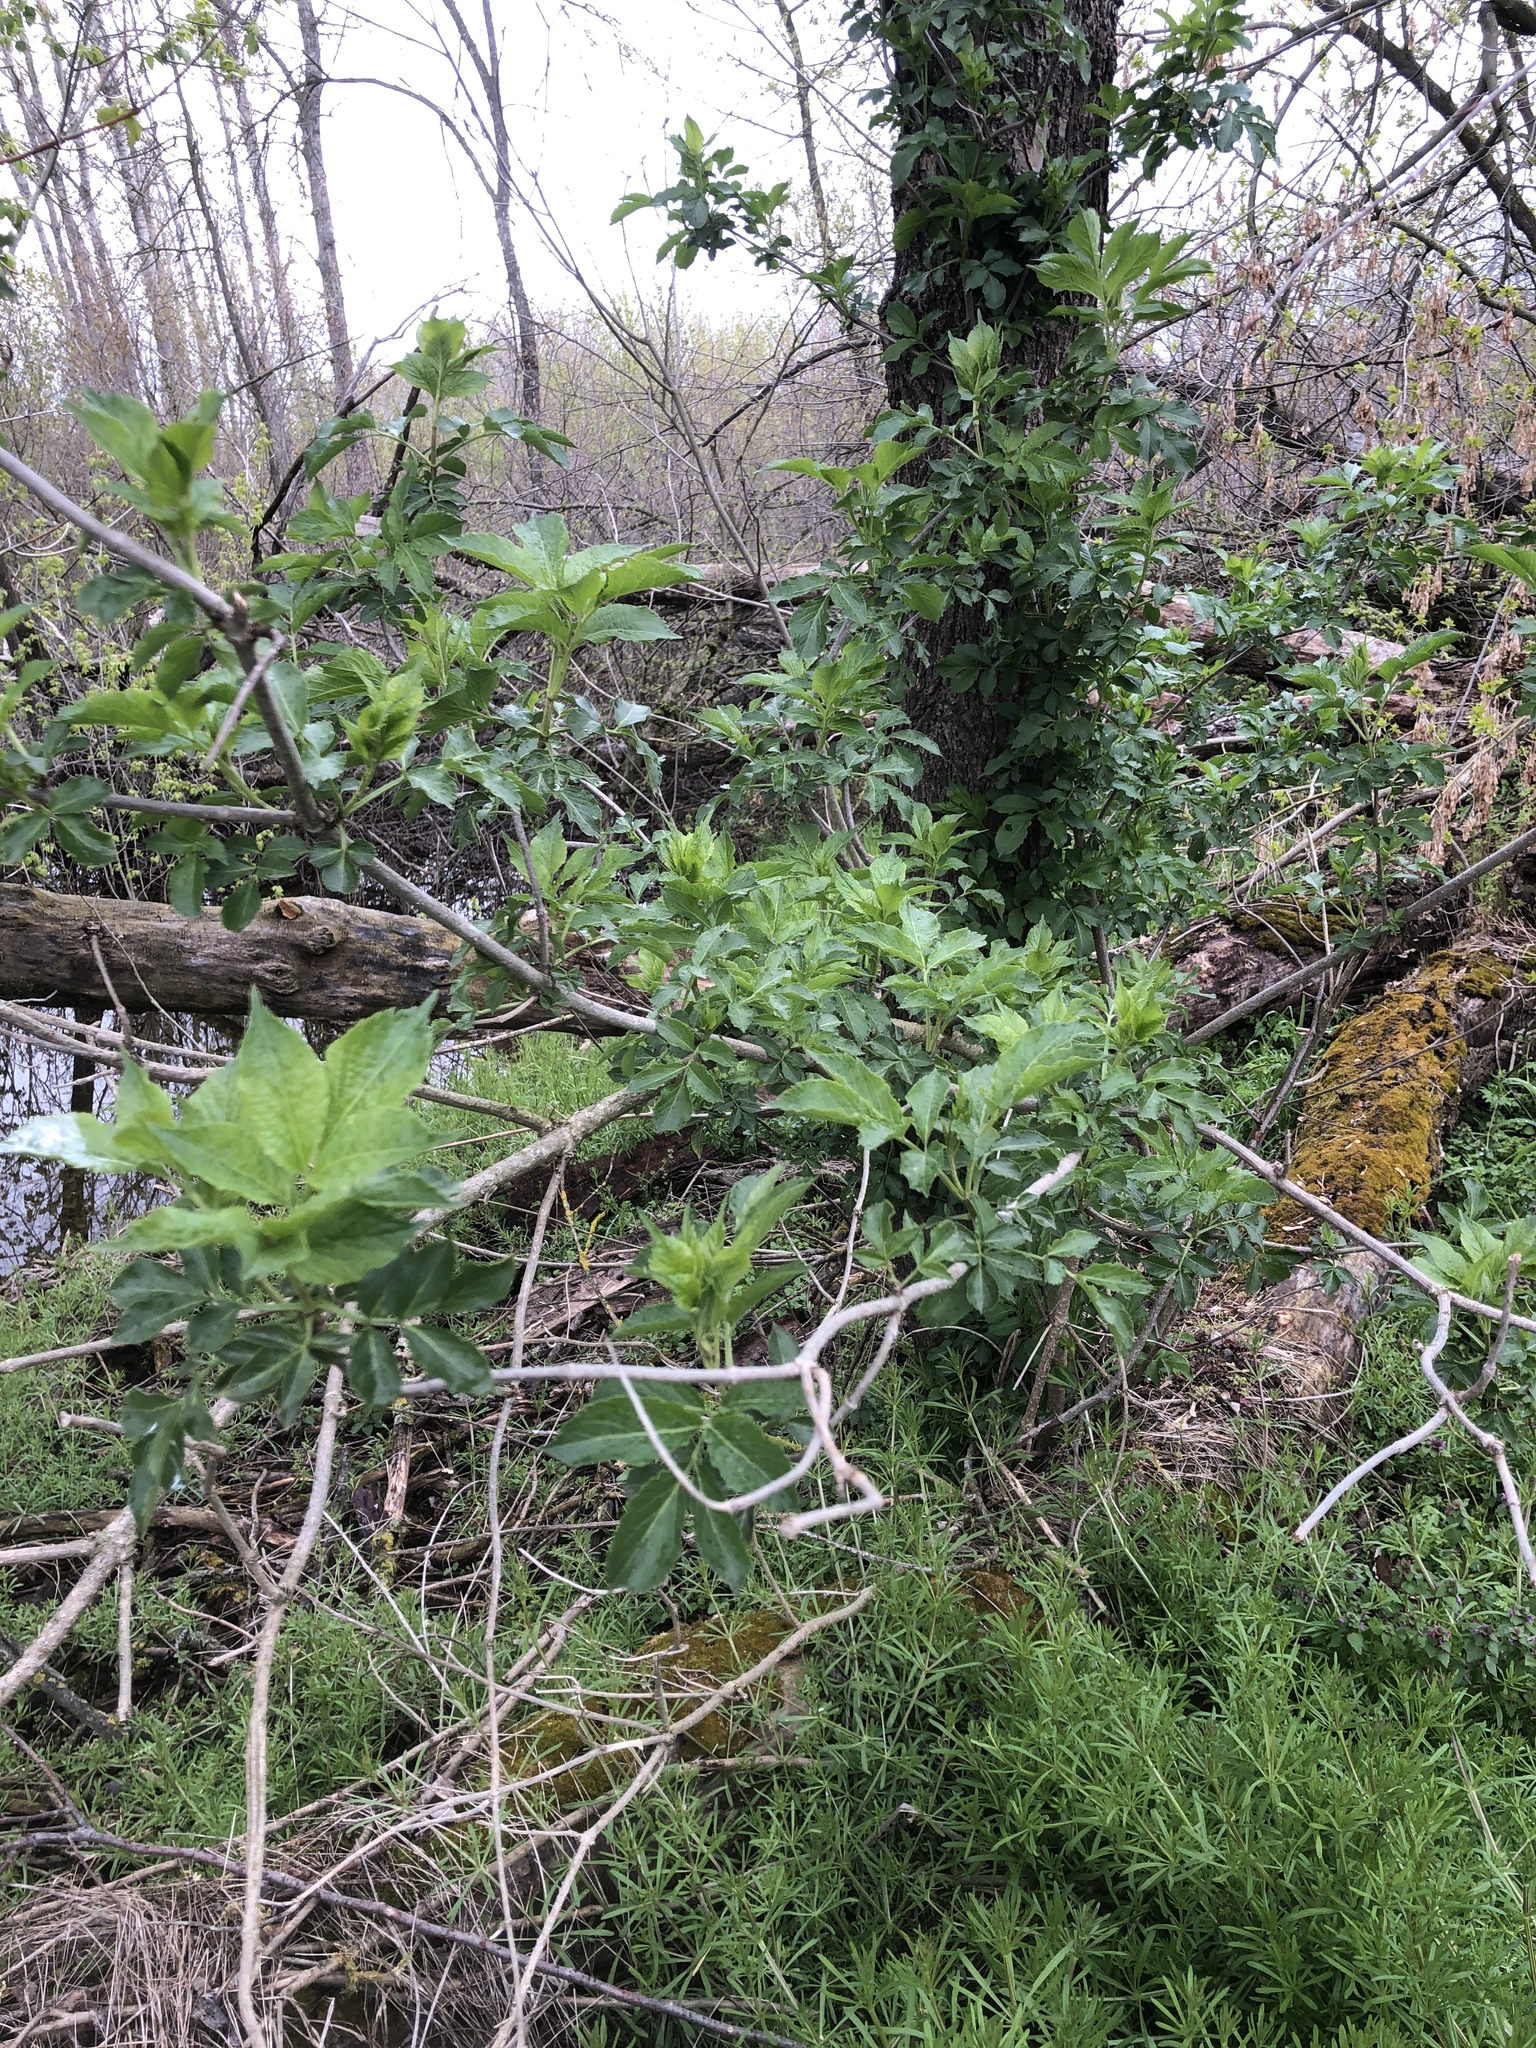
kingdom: Plantae
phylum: Tracheophyta
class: Magnoliopsida
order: Dipsacales
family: Viburnaceae
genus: Sambucus
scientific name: Sambucus nigra
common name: Elder
